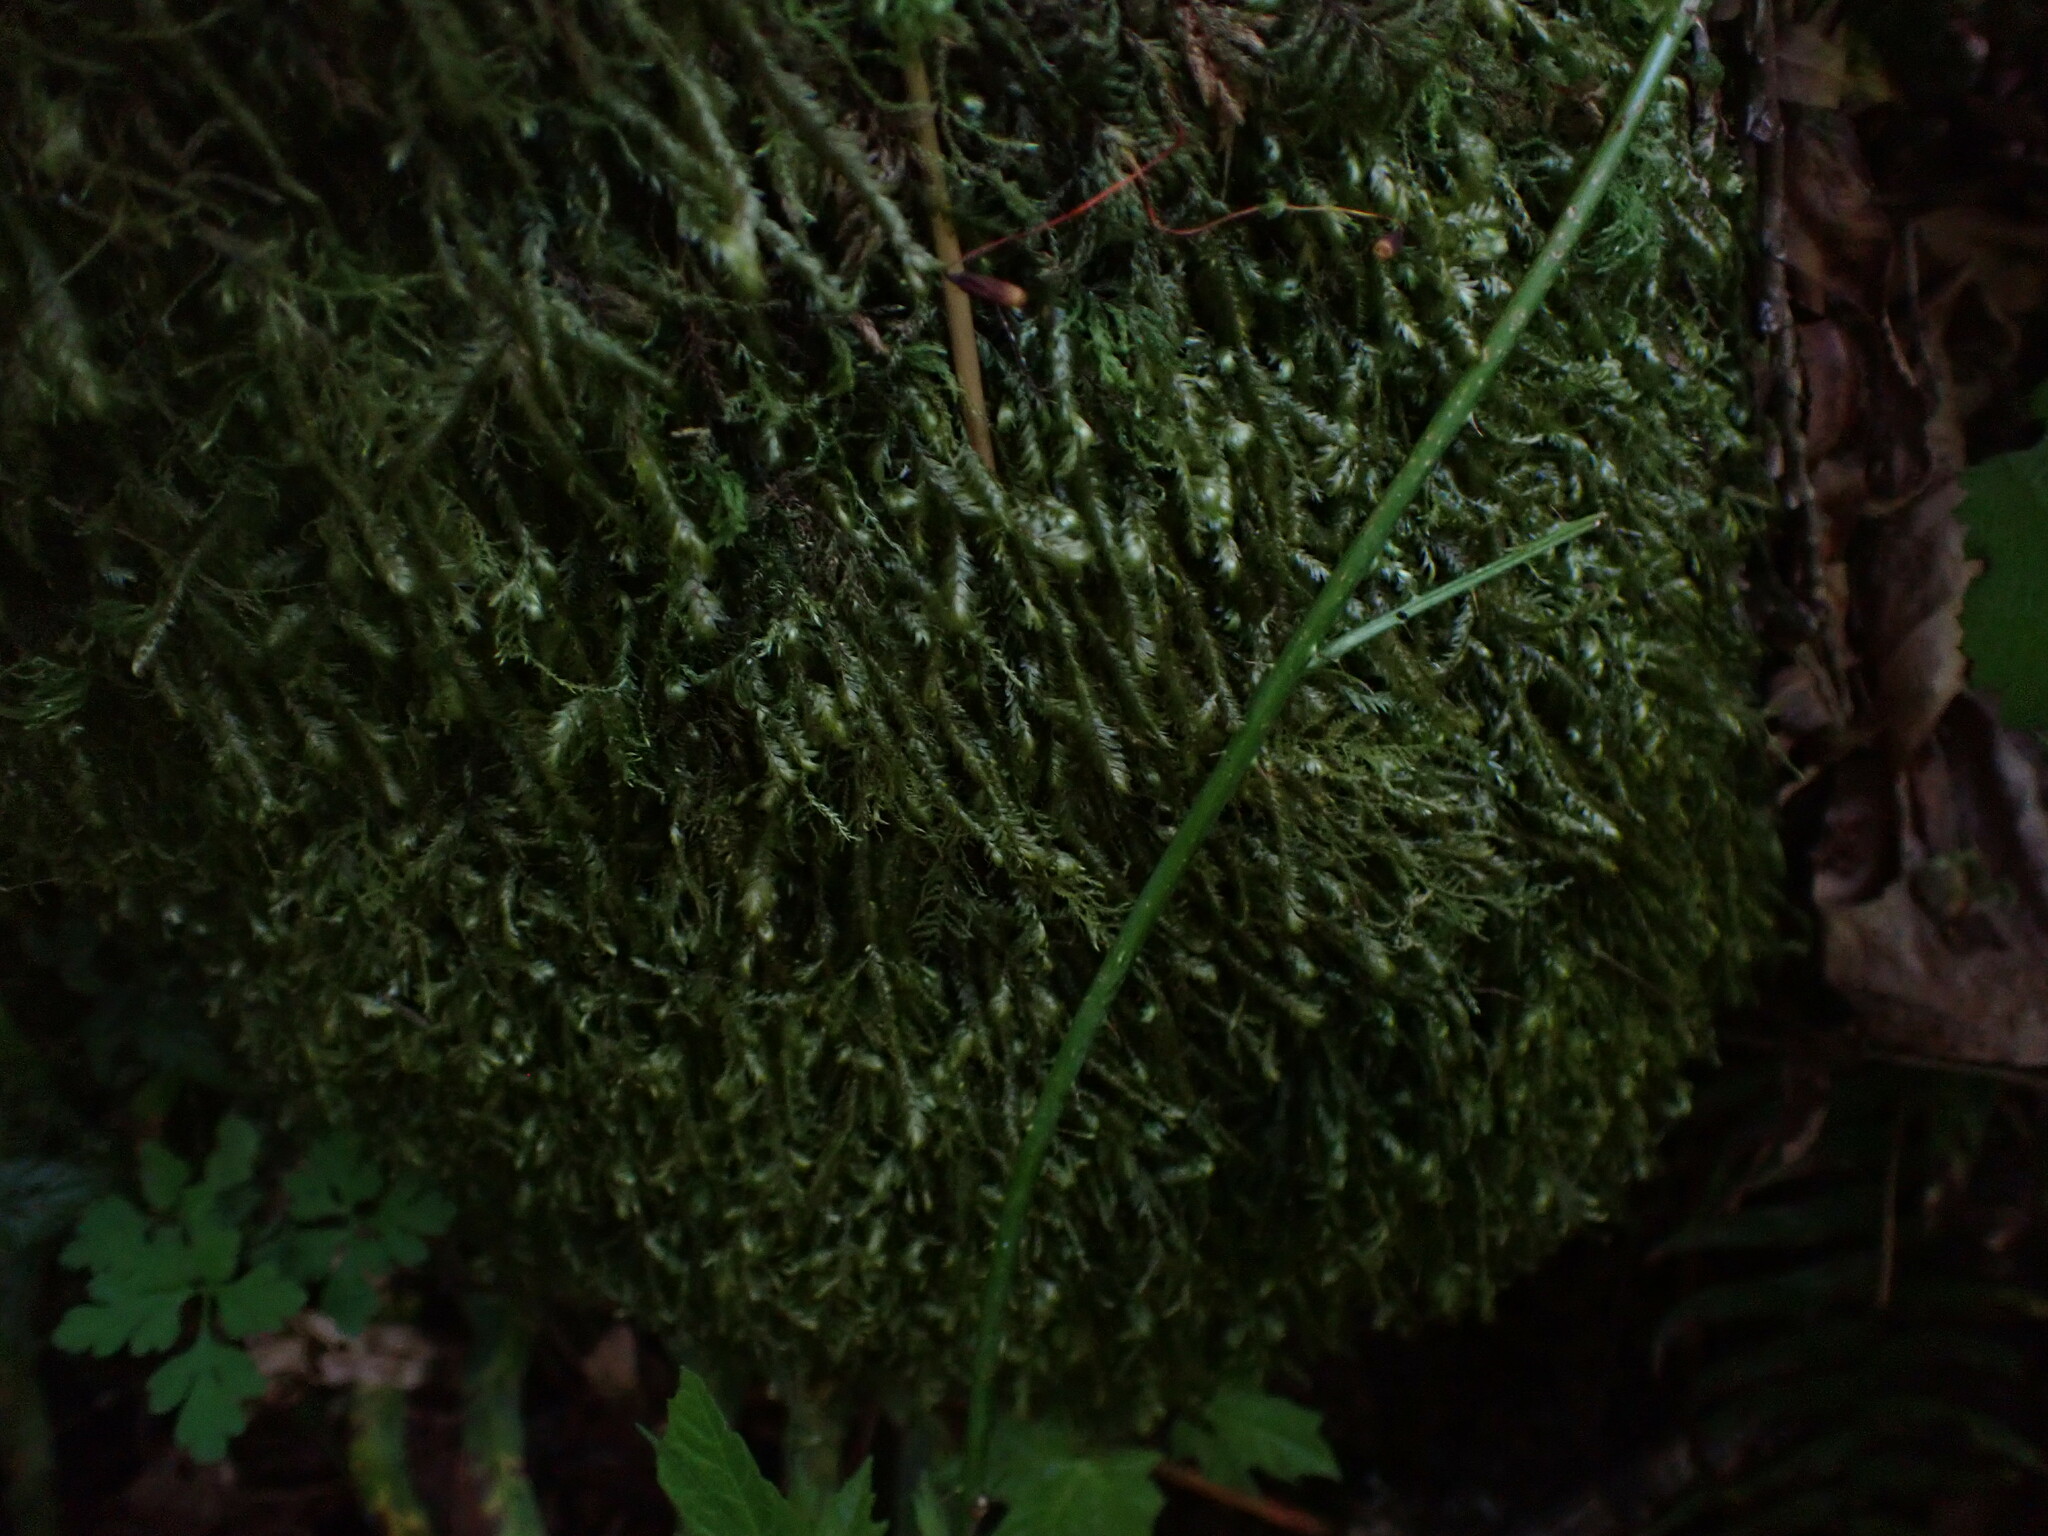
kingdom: Plantae
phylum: Bryophyta
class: Bryopsida
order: Hypnales
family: Neckeraceae
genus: Dannorrisia
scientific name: Dannorrisia bigelovii
